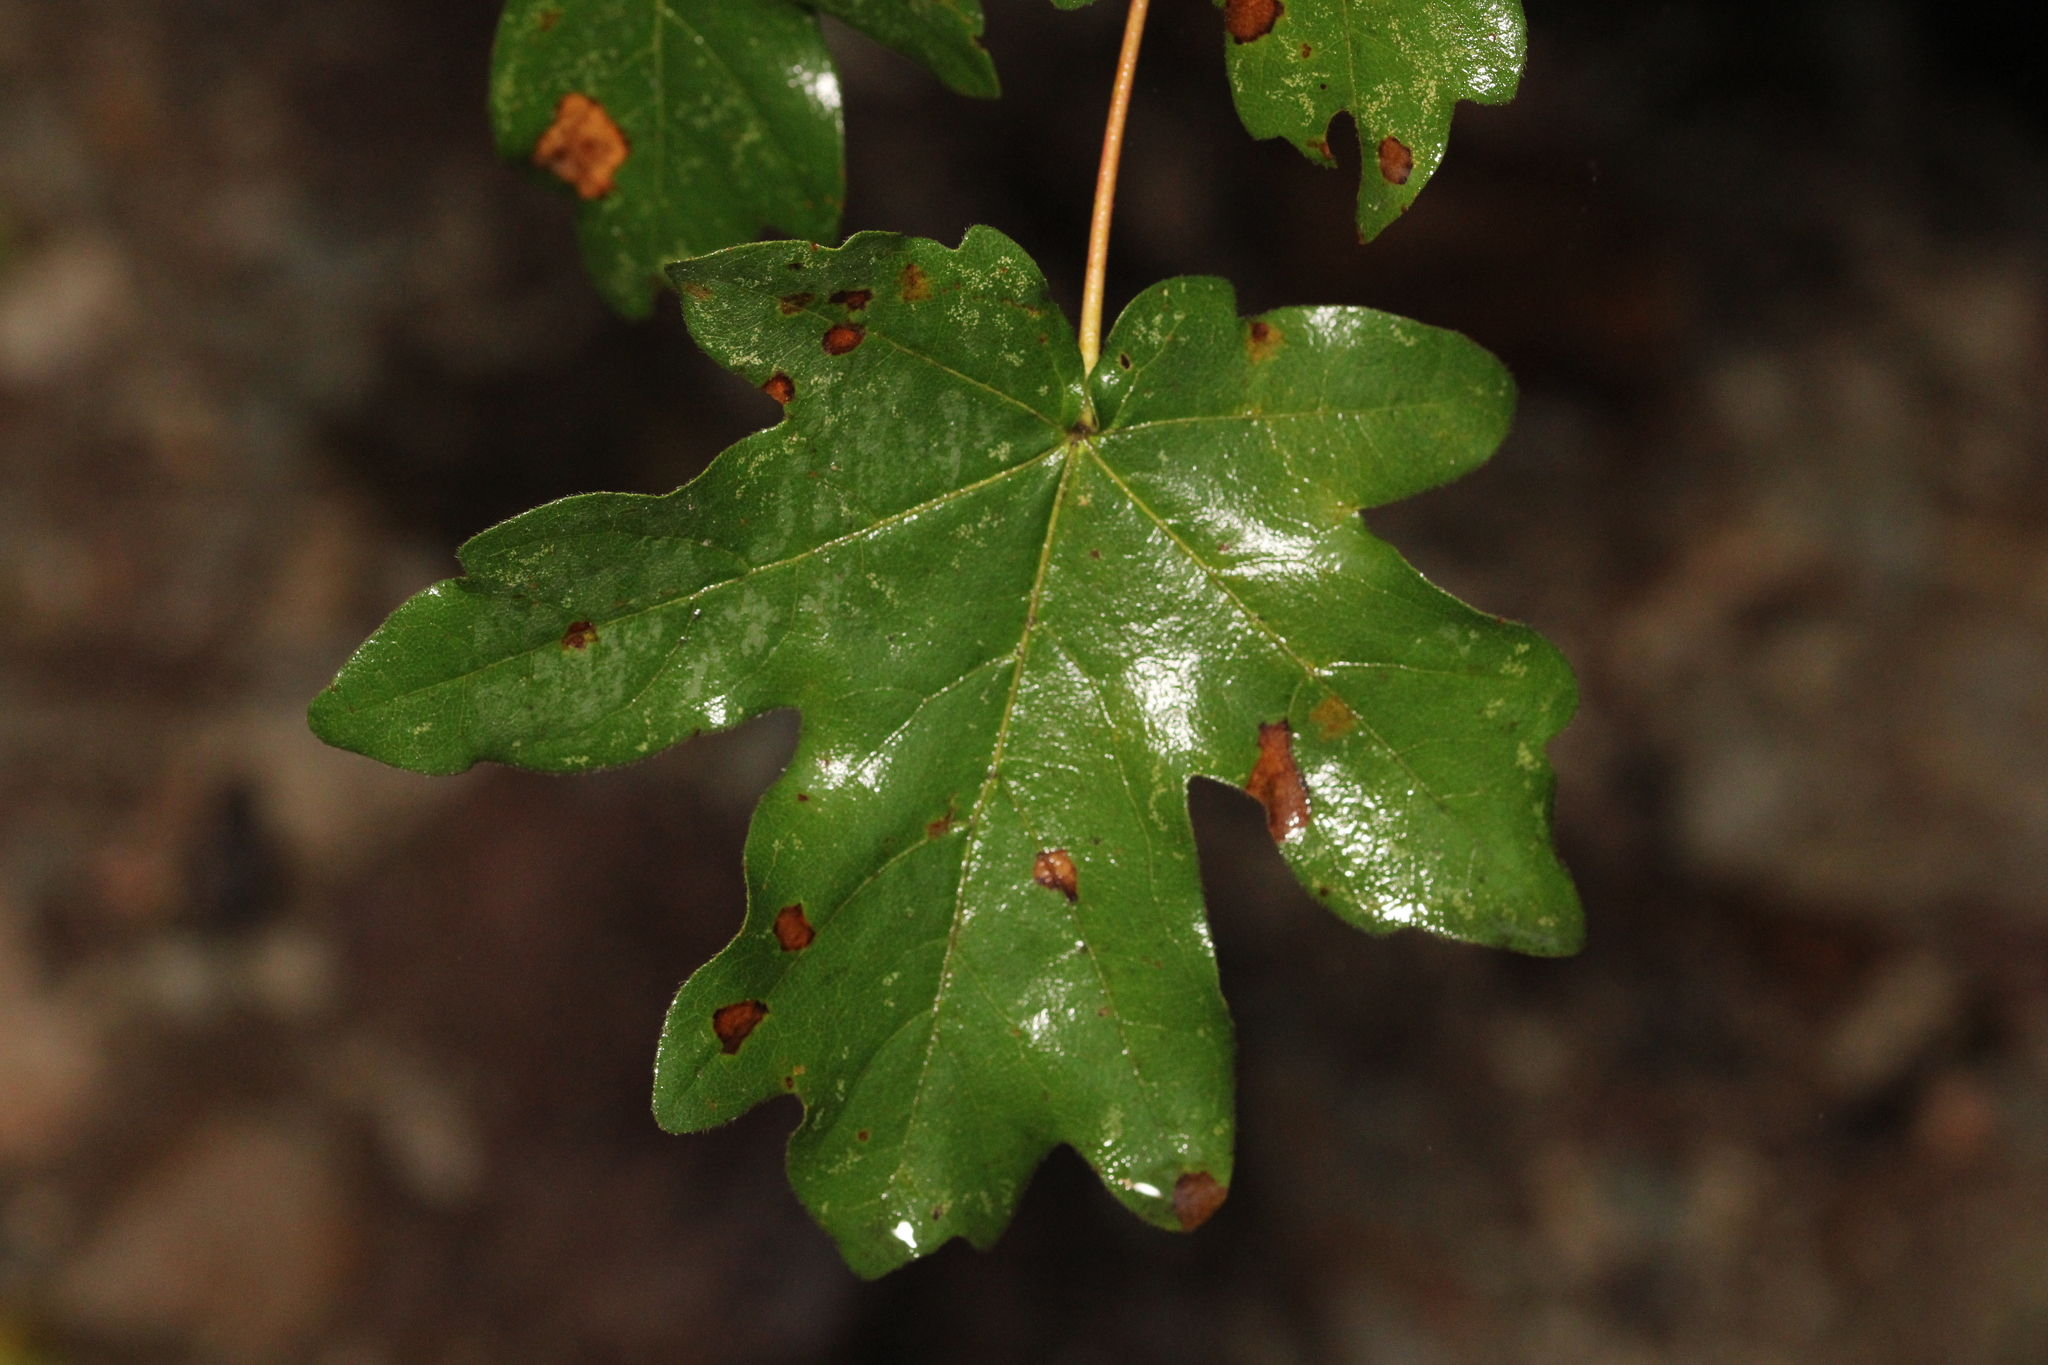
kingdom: Plantae
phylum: Tracheophyta
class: Magnoliopsida
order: Sapindales
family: Sapindaceae
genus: Acer
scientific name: Acer campestre
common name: Field maple
